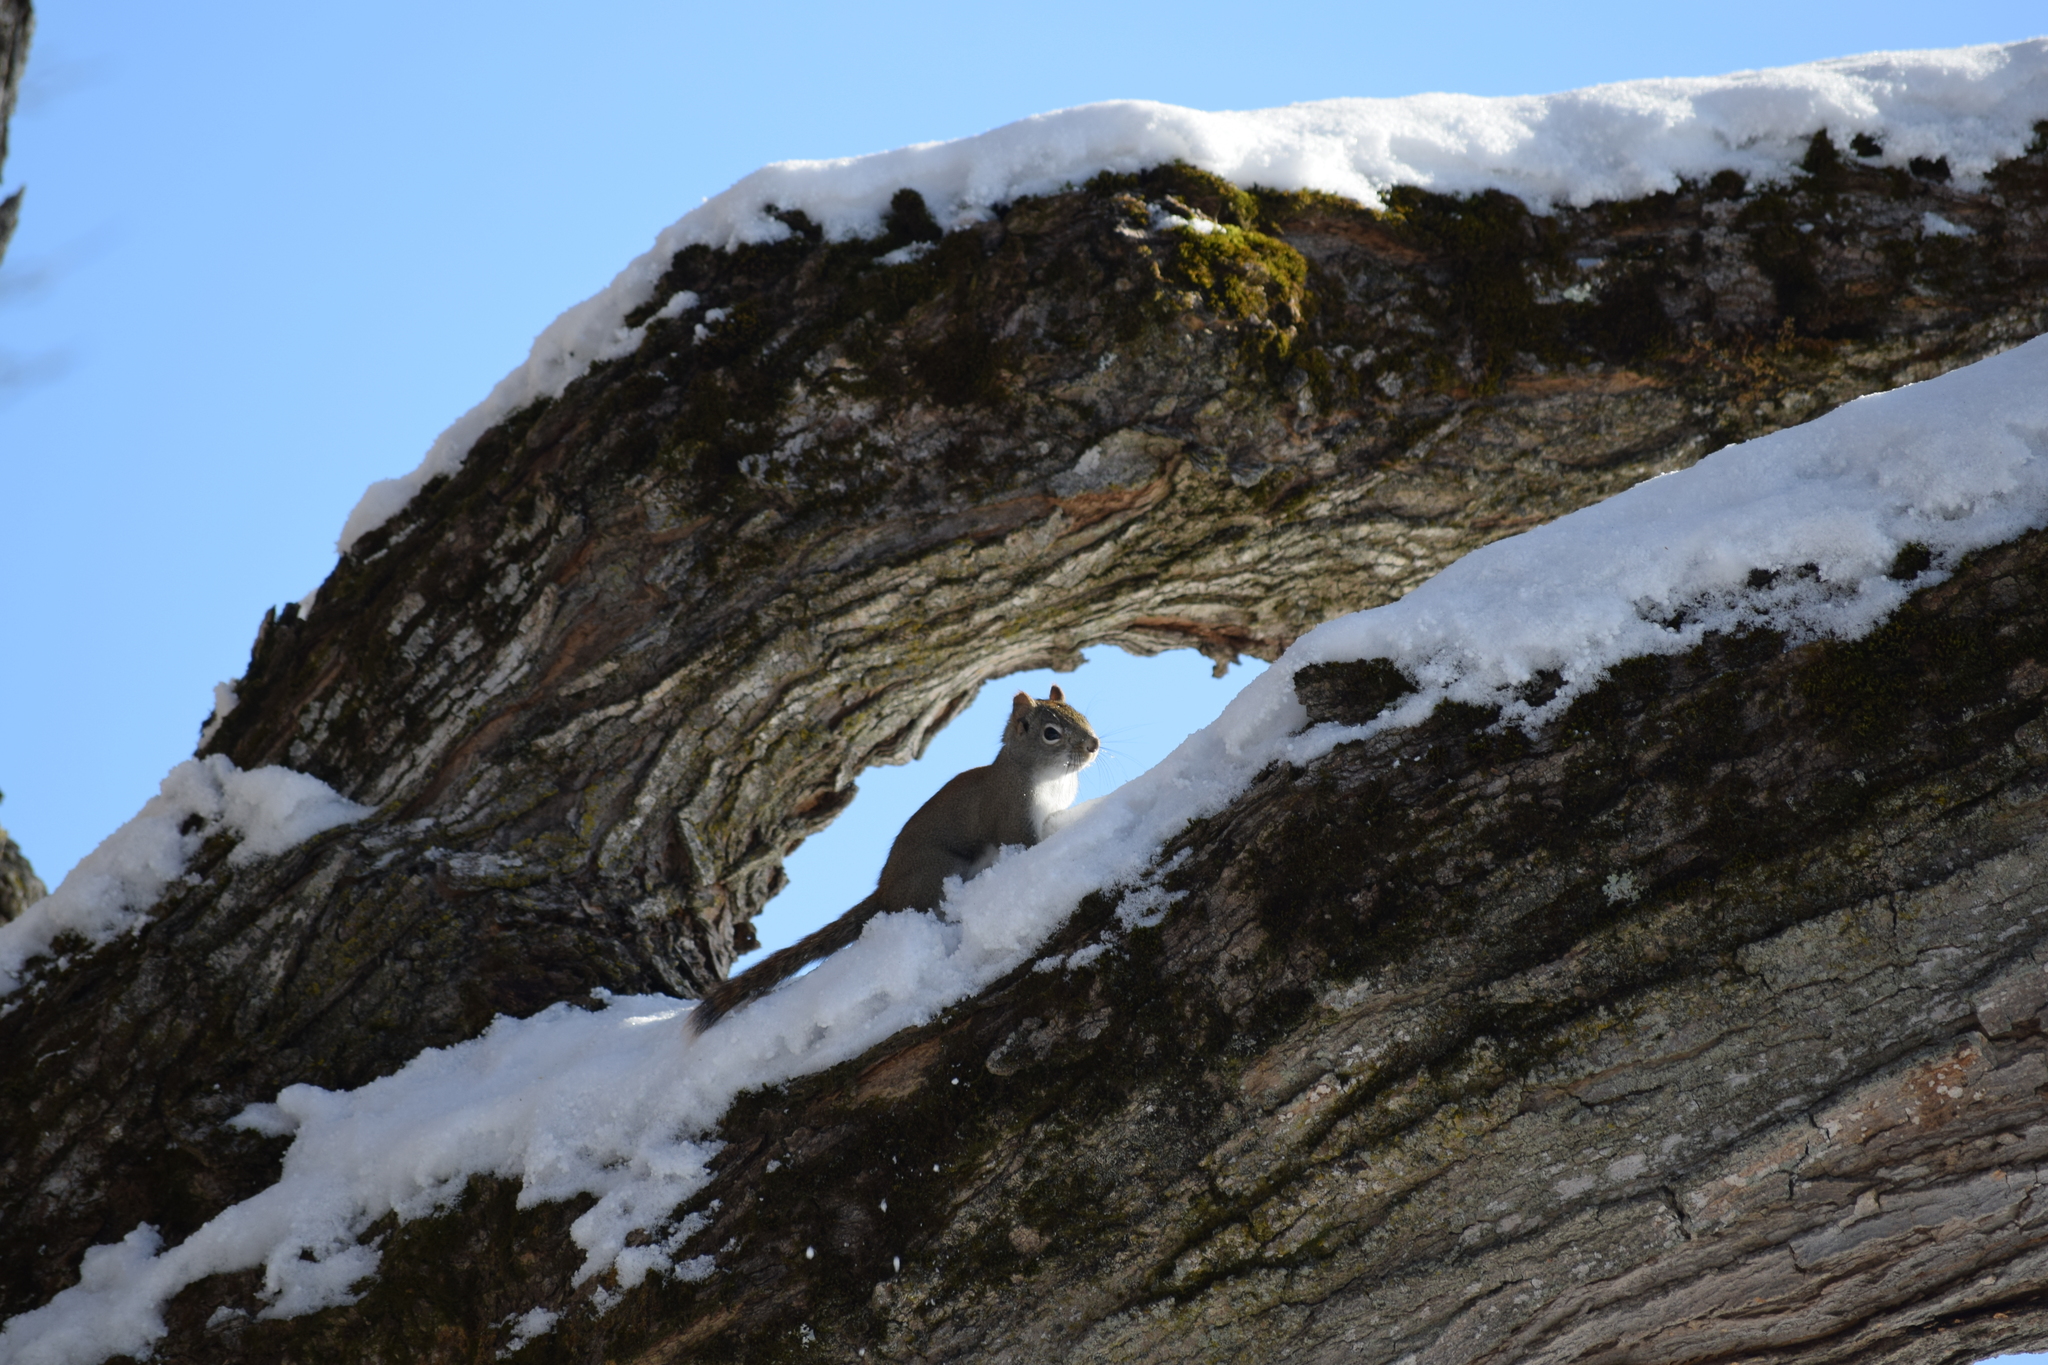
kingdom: Animalia
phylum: Chordata
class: Mammalia
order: Rodentia
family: Sciuridae
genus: Tamiasciurus
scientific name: Tamiasciurus hudsonicus
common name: Red squirrel
